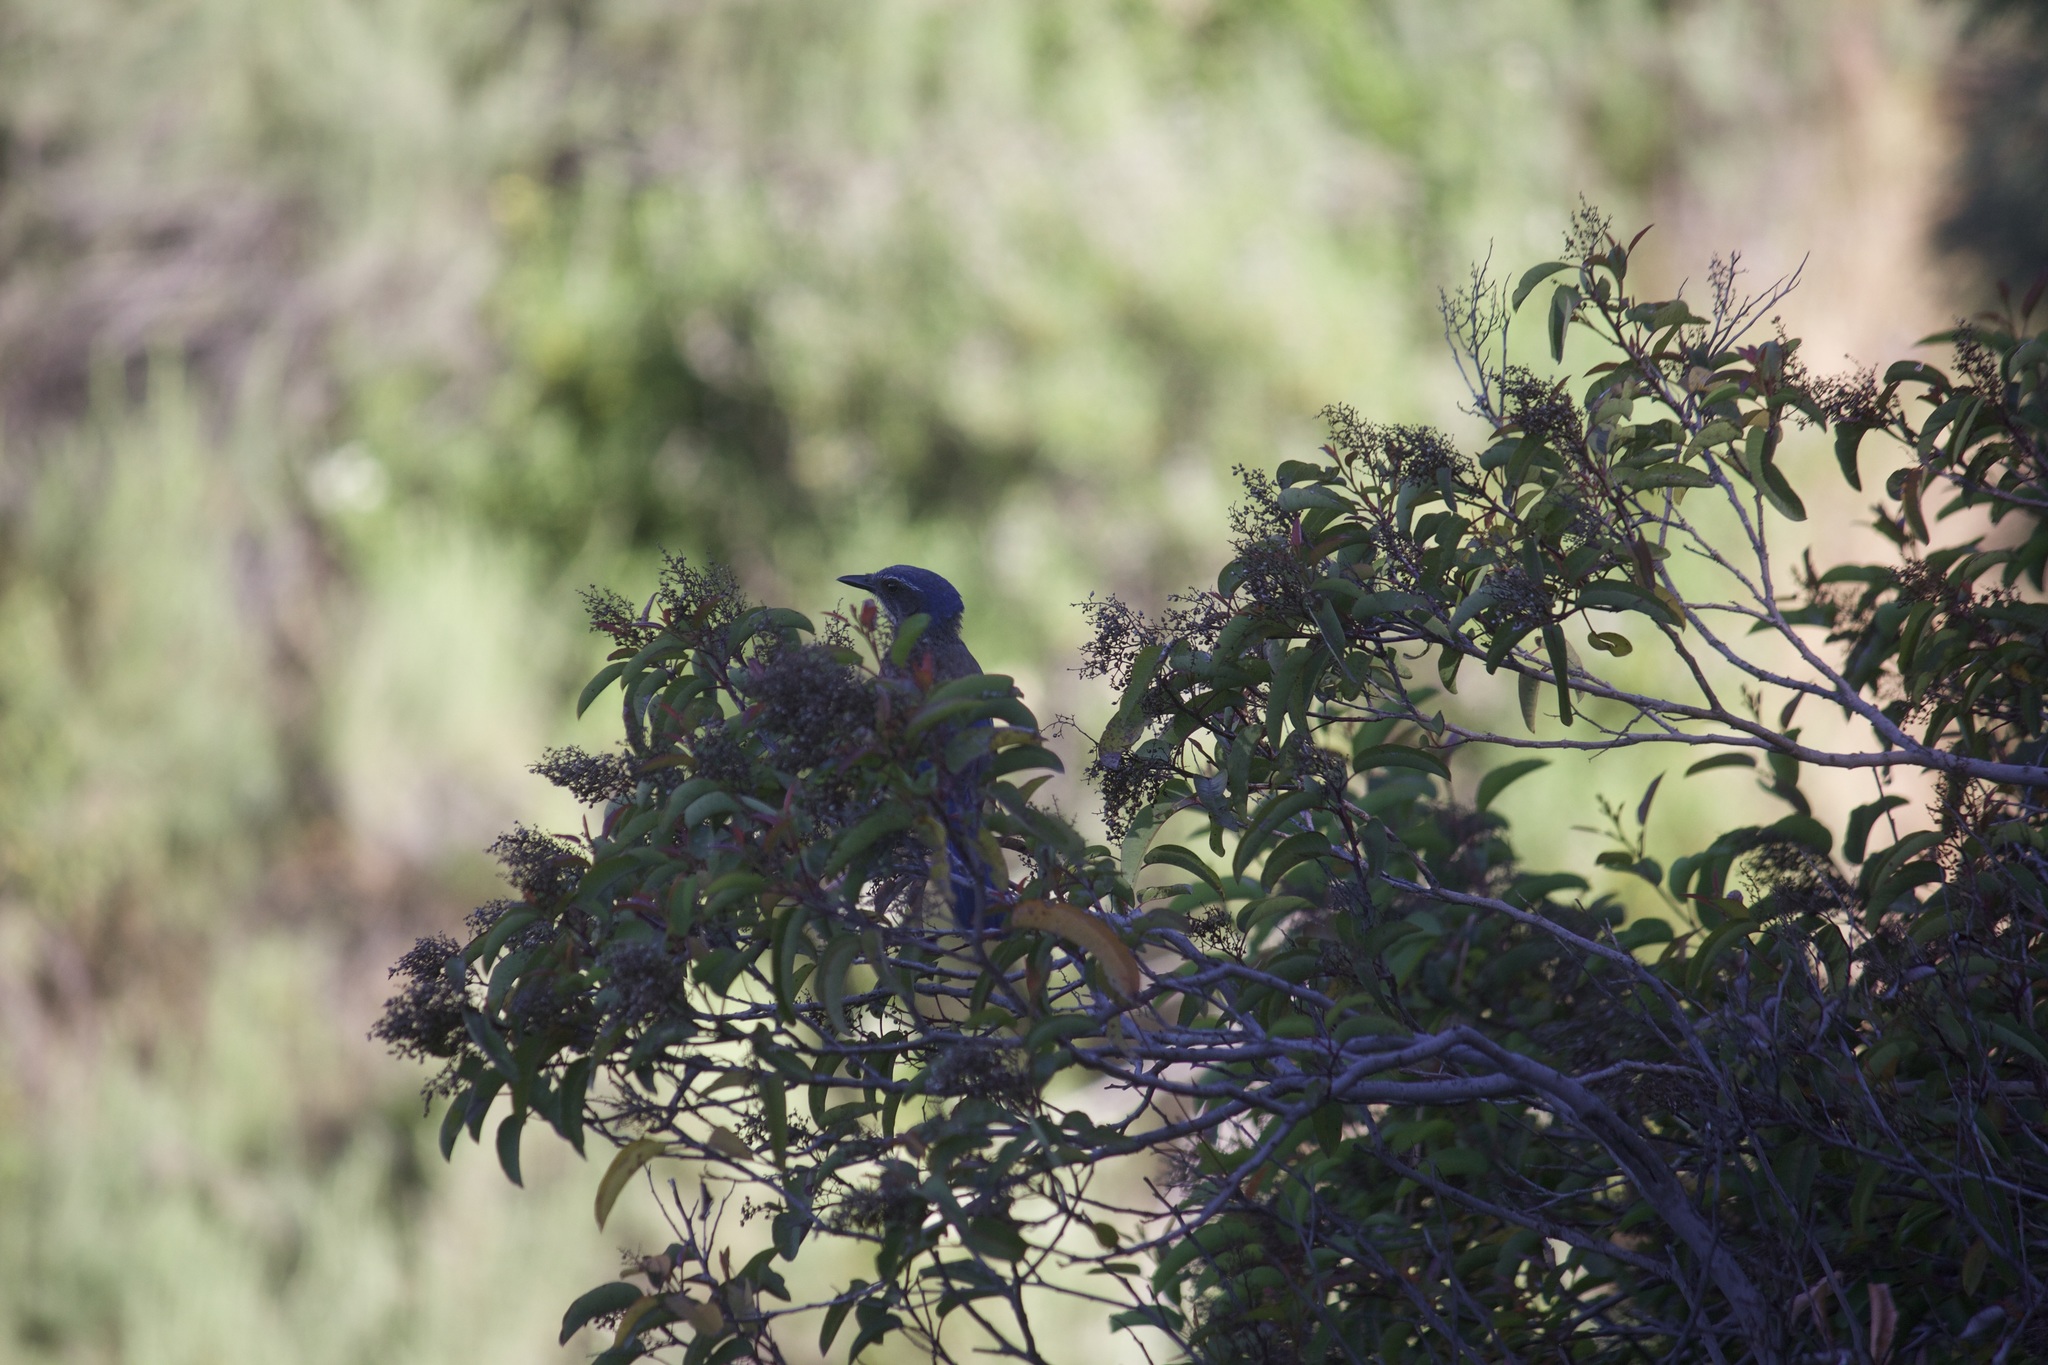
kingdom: Animalia
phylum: Chordata
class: Aves
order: Passeriformes
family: Corvidae
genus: Aphelocoma
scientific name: Aphelocoma californica
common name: California scrub-jay
